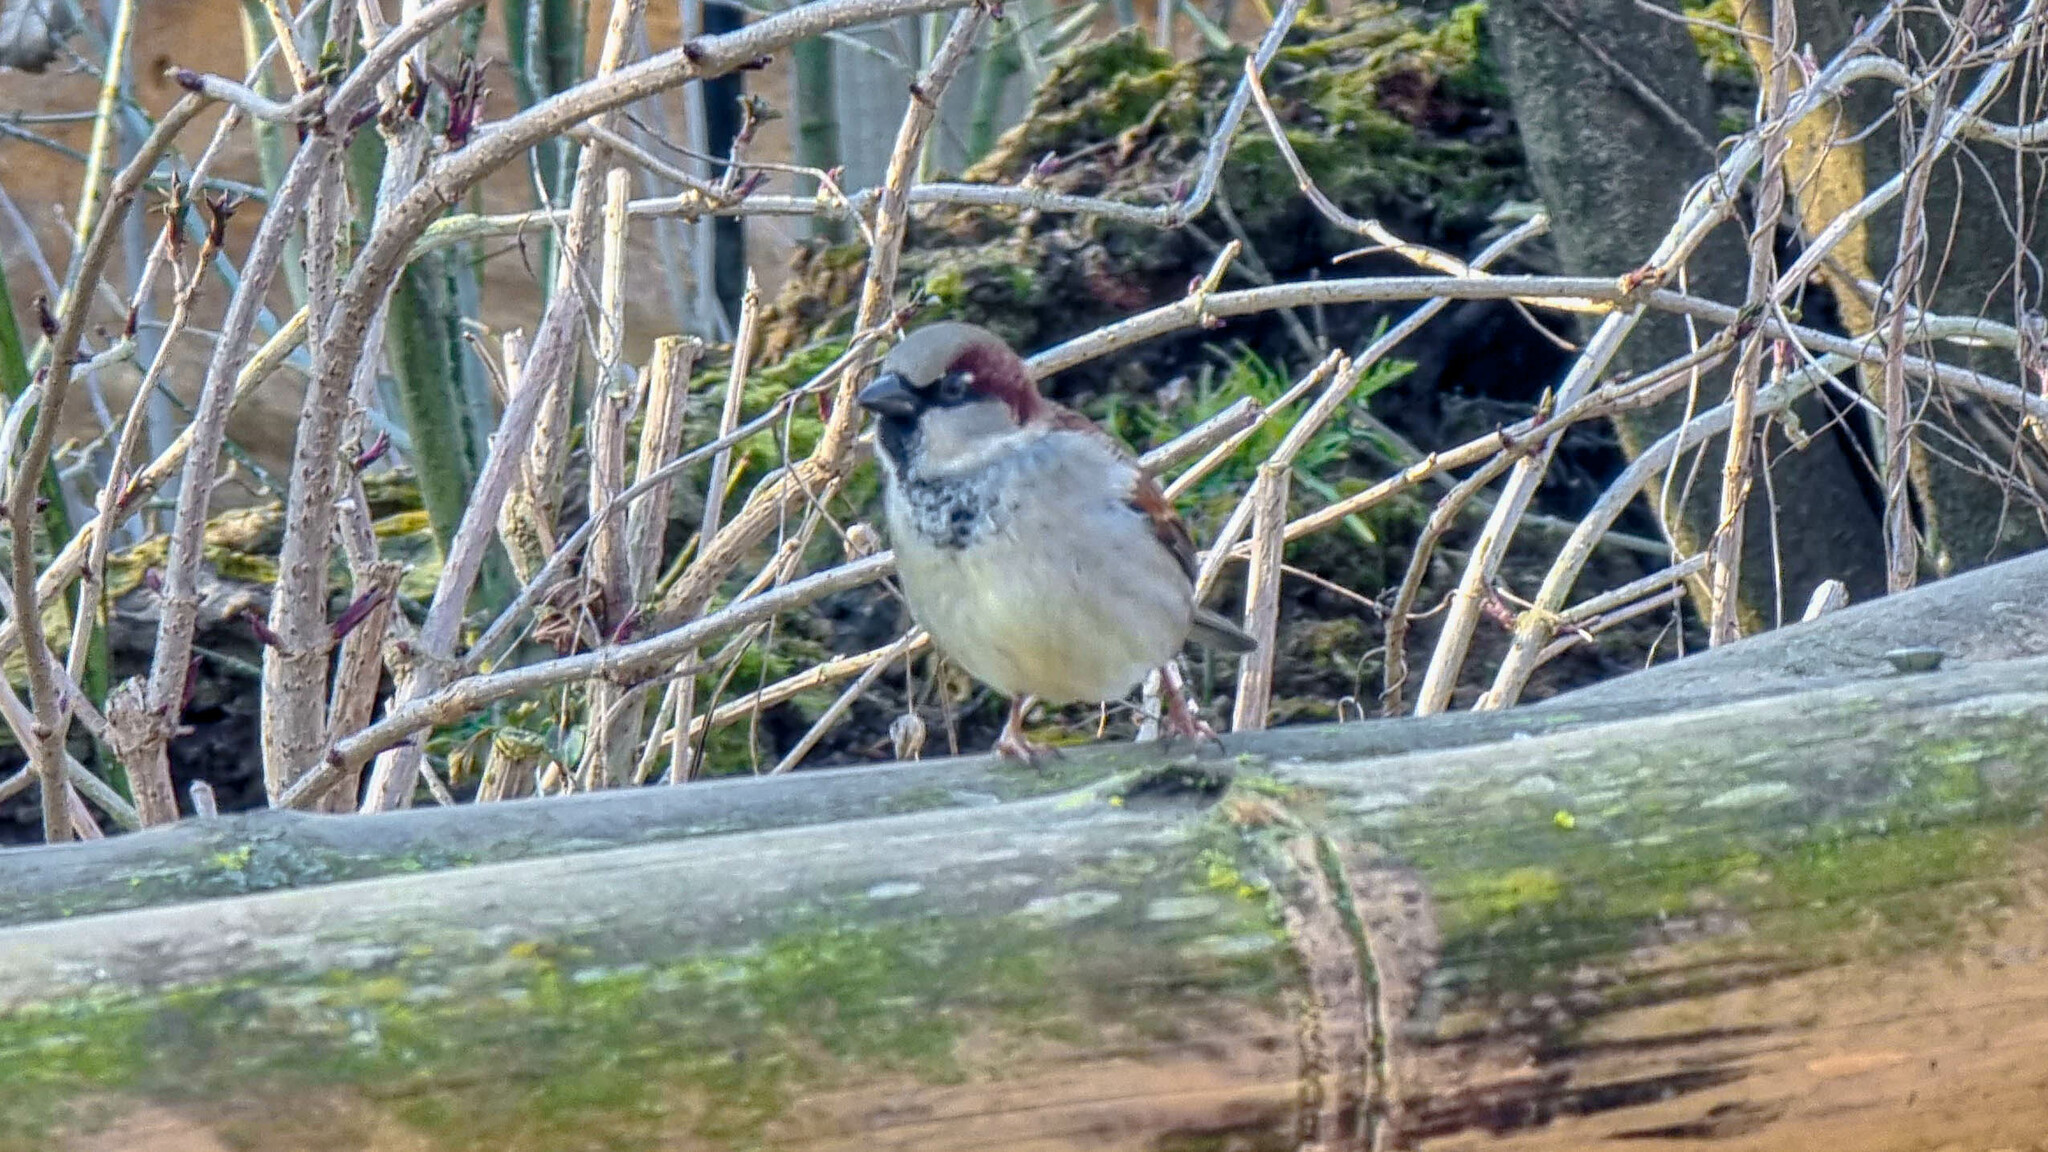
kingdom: Animalia
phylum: Chordata
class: Aves
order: Passeriformes
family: Passeridae
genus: Passer
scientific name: Passer domesticus
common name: House sparrow
